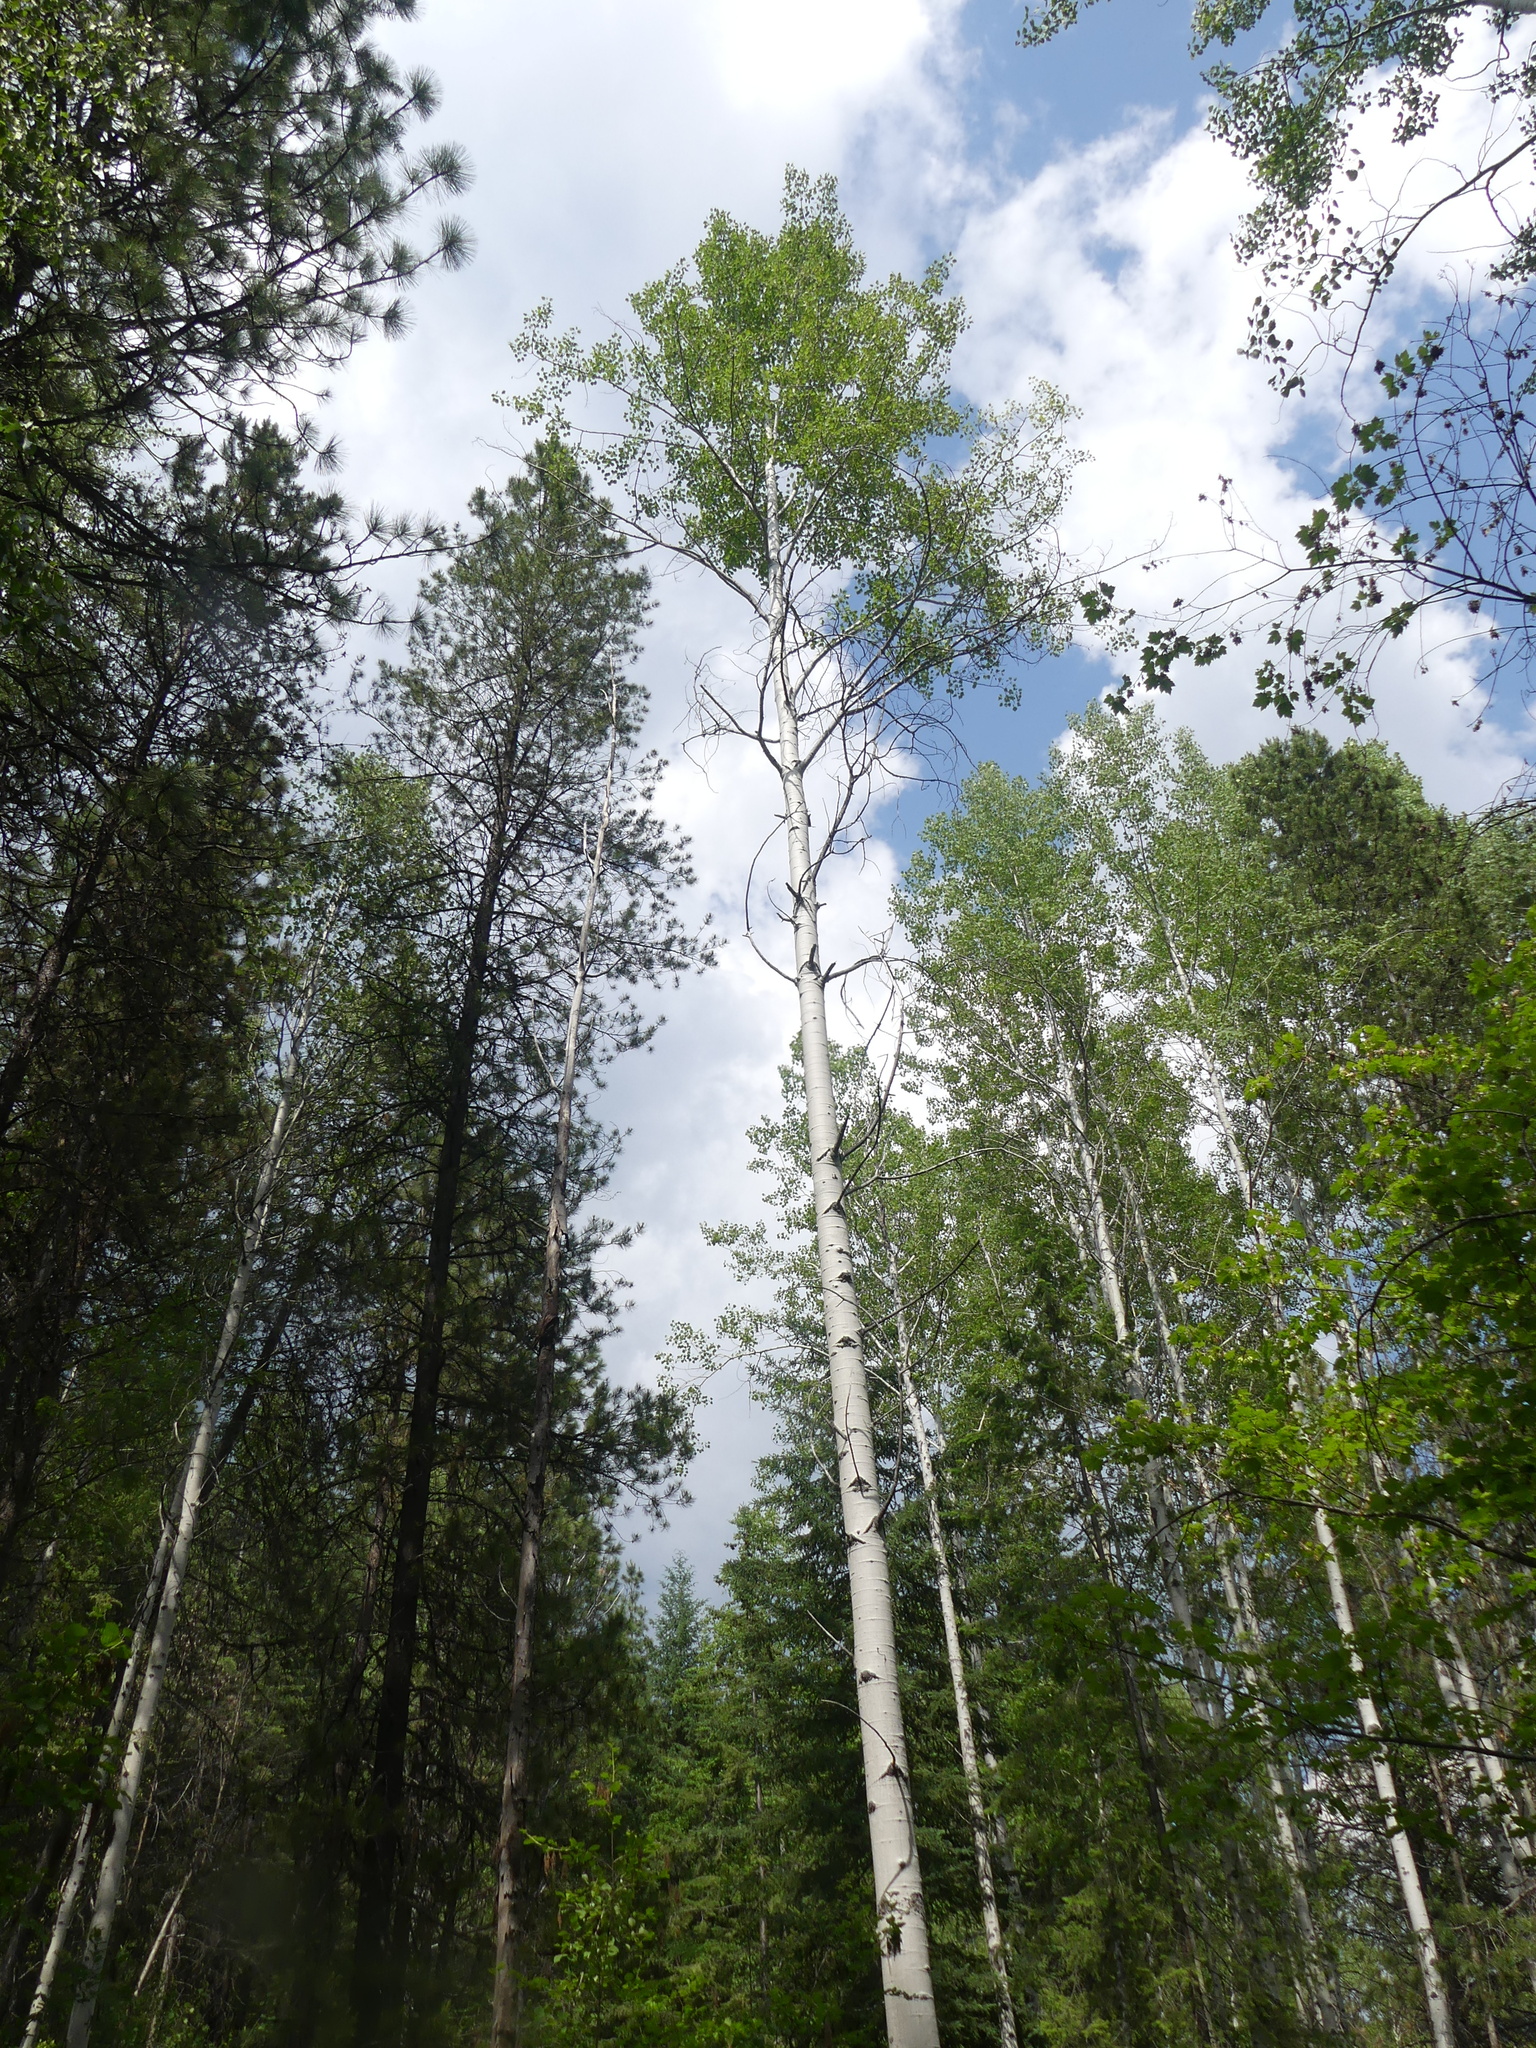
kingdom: Plantae
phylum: Tracheophyta
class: Magnoliopsida
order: Malpighiales
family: Salicaceae
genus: Populus
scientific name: Populus tremuloides
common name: Quaking aspen
